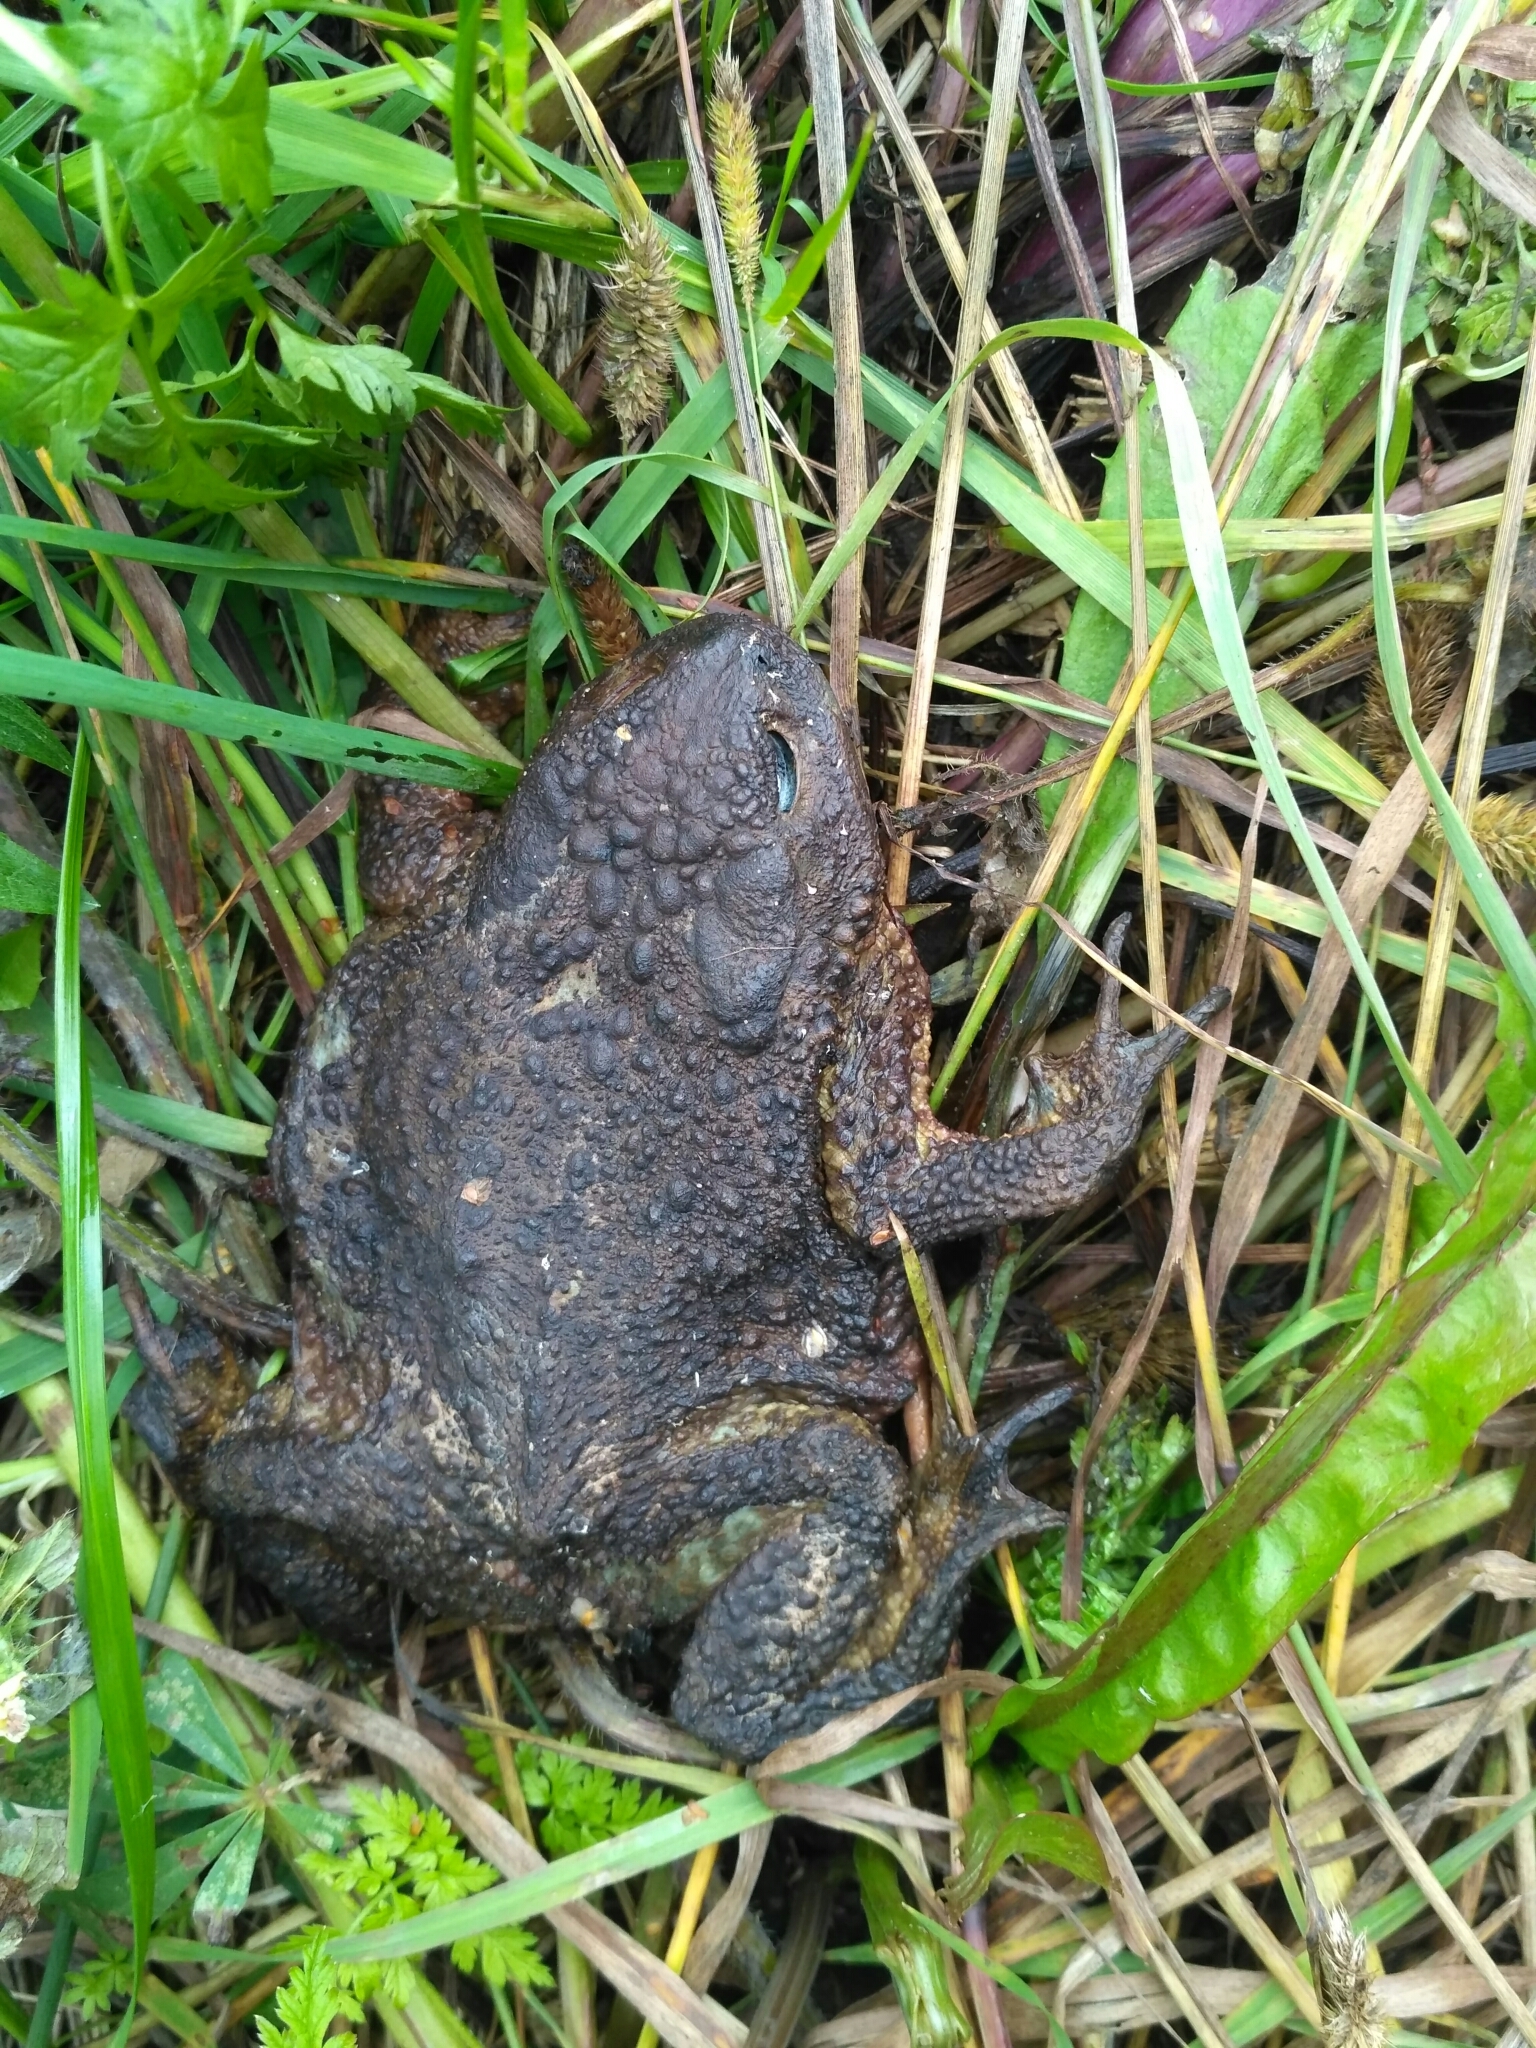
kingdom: Animalia
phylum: Chordata
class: Amphibia
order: Anura
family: Bufonidae
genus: Bufo
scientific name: Bufo bufo
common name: Common toad
